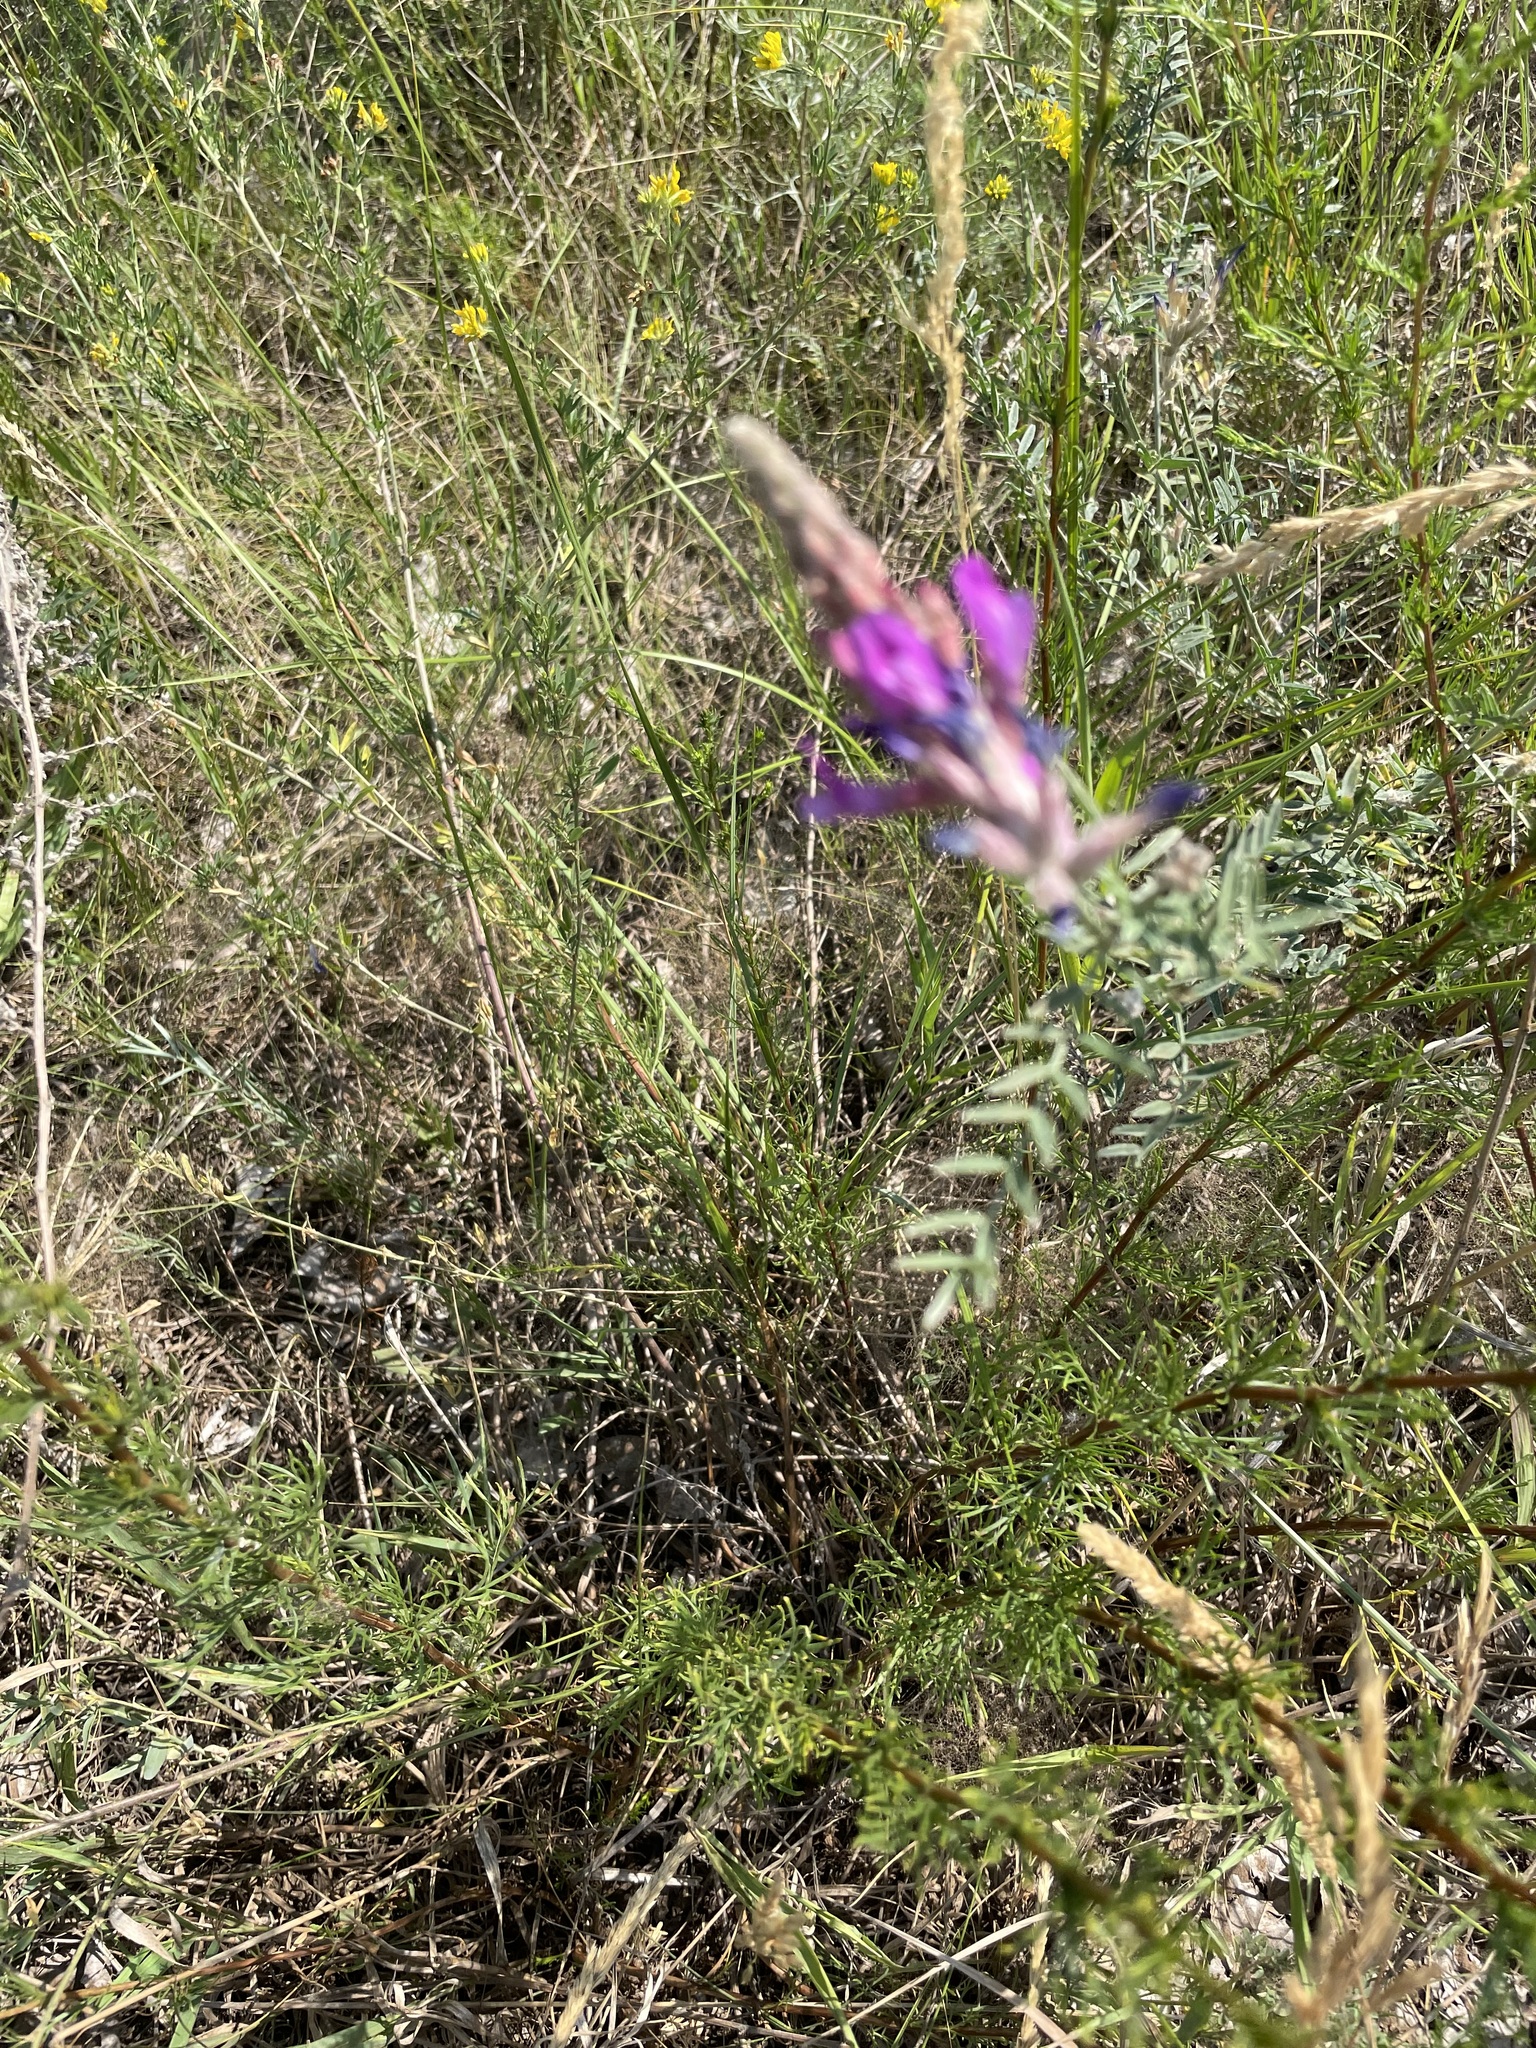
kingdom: Plantae
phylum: Tracheophyta
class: Magnoliopsida
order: Fabales
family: Fabaceae
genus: Astragalus
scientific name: Astragalus varius
